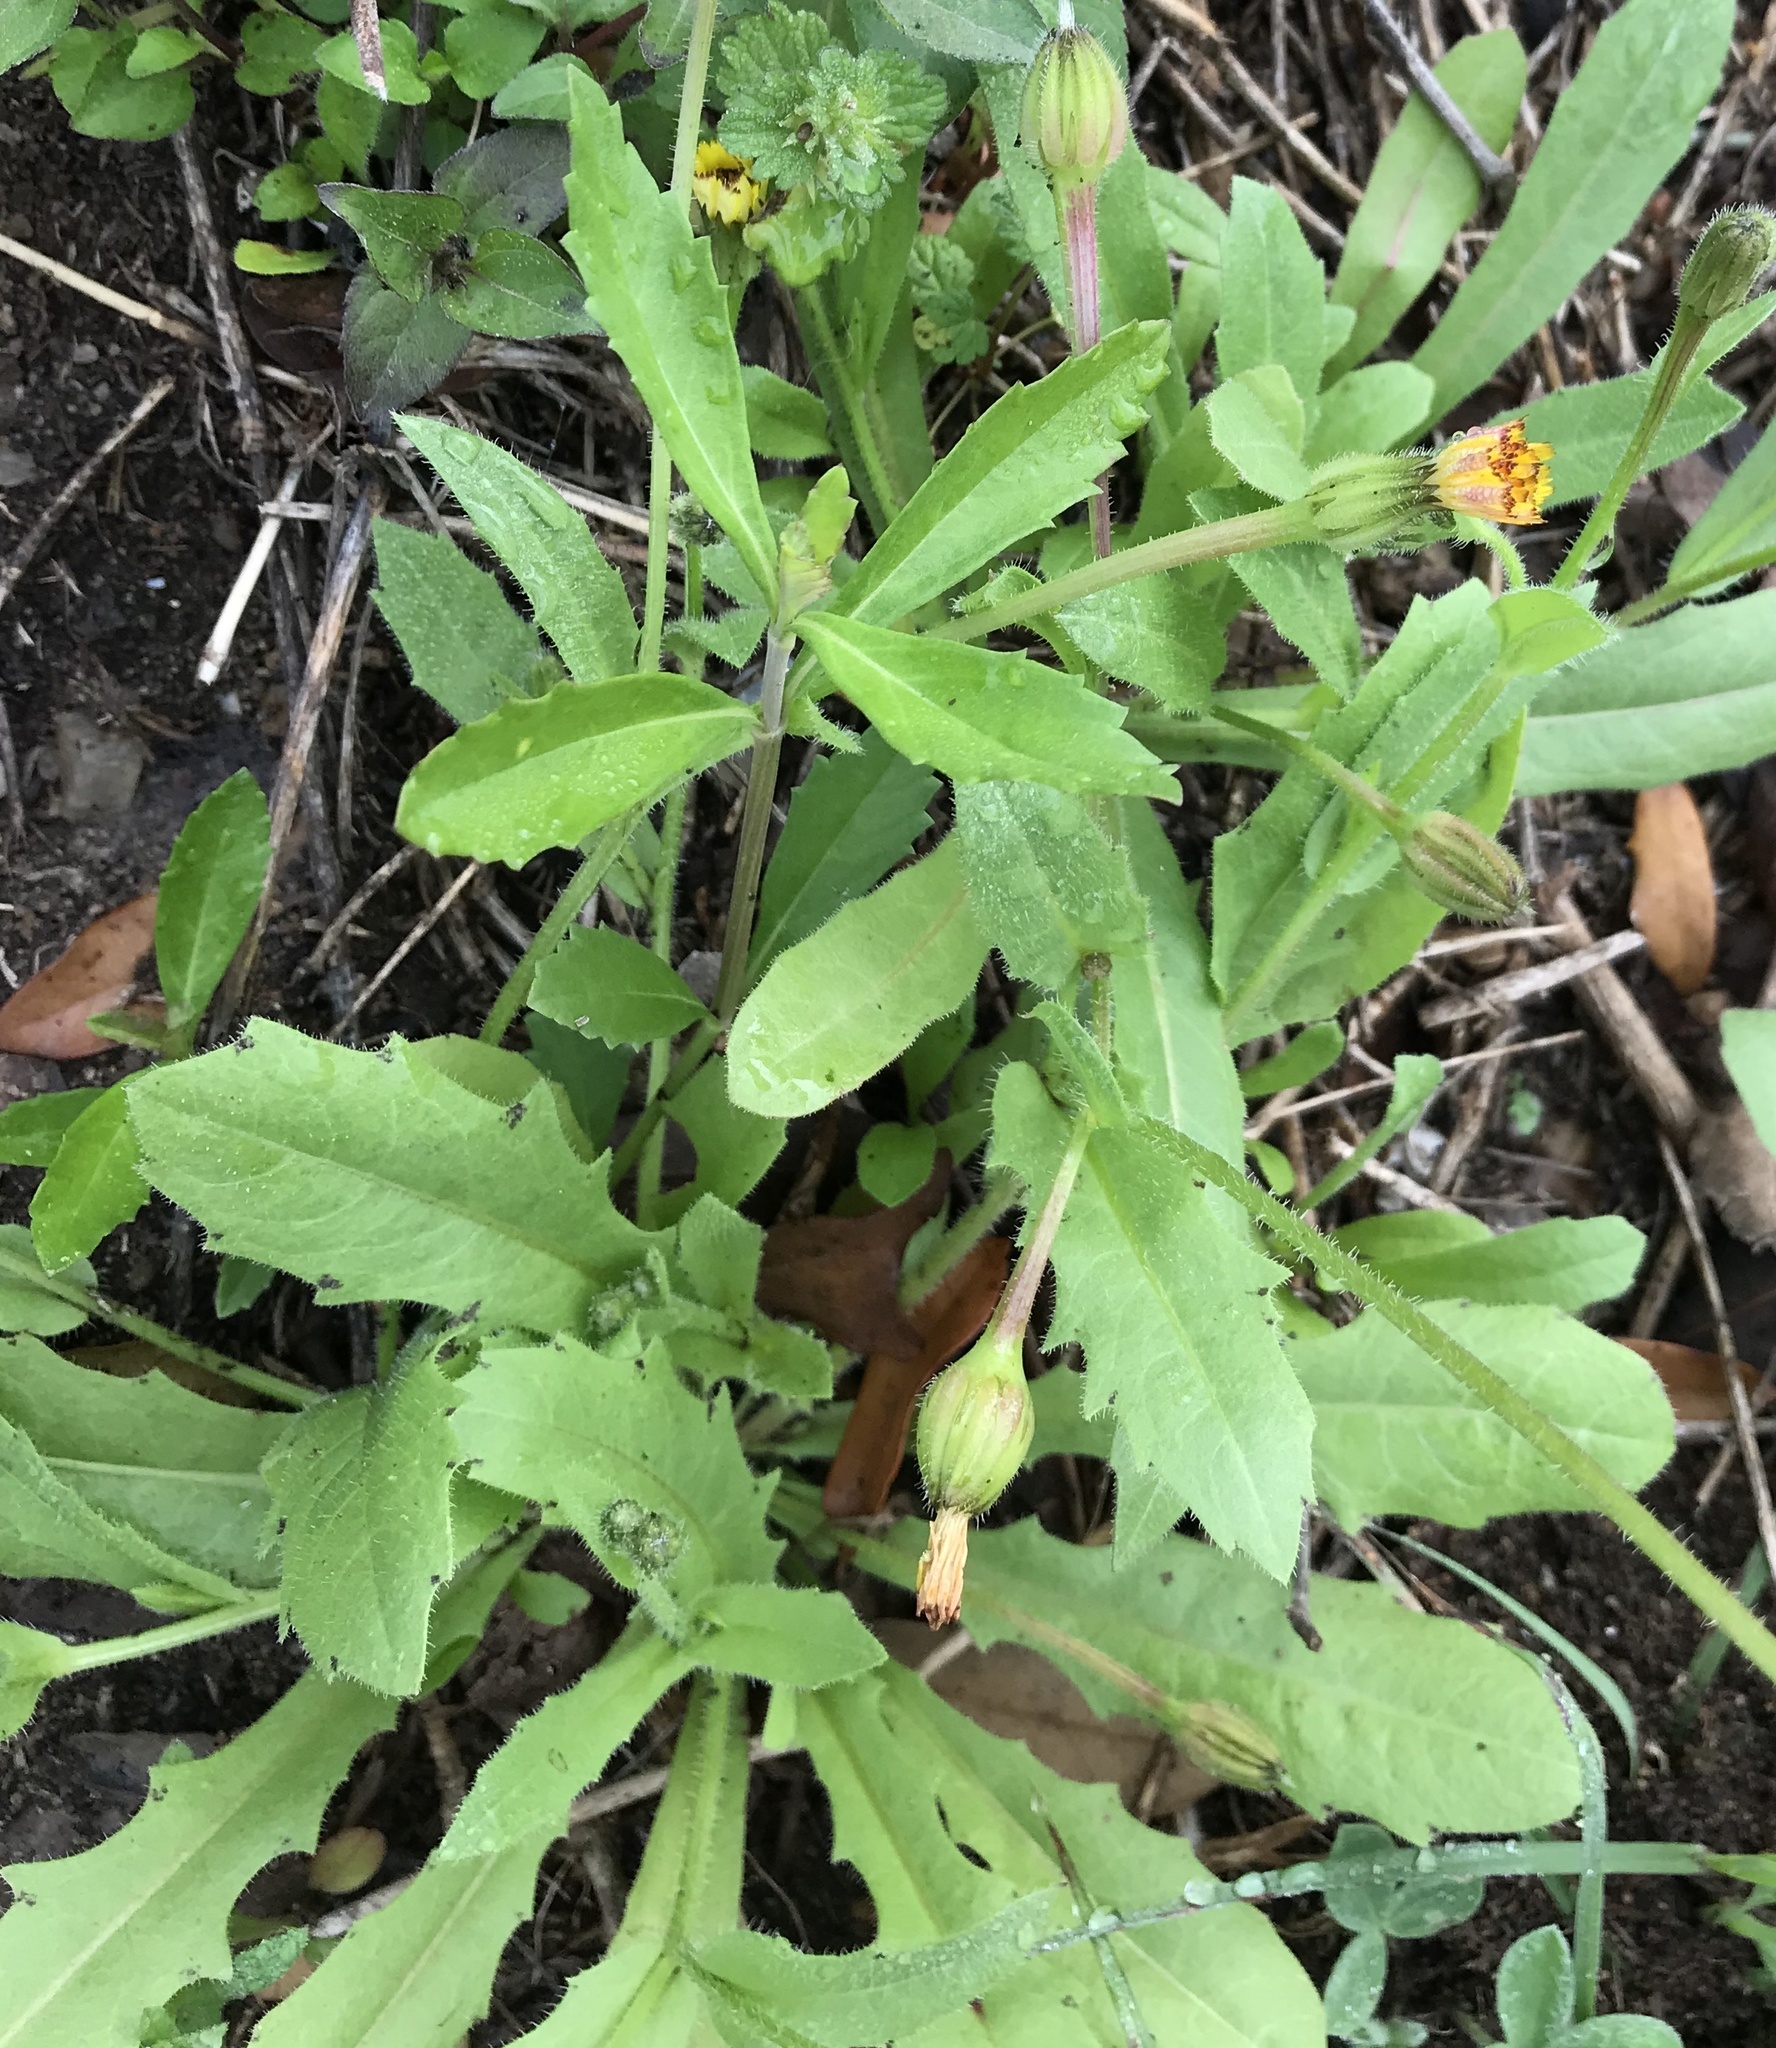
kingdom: Plantae
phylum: Tracheophyta
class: Magnoliopsida
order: Asterales
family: Asteraceae
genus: Hedypnois
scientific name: Hedypnois rhagadioloides
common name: Cretan weed
